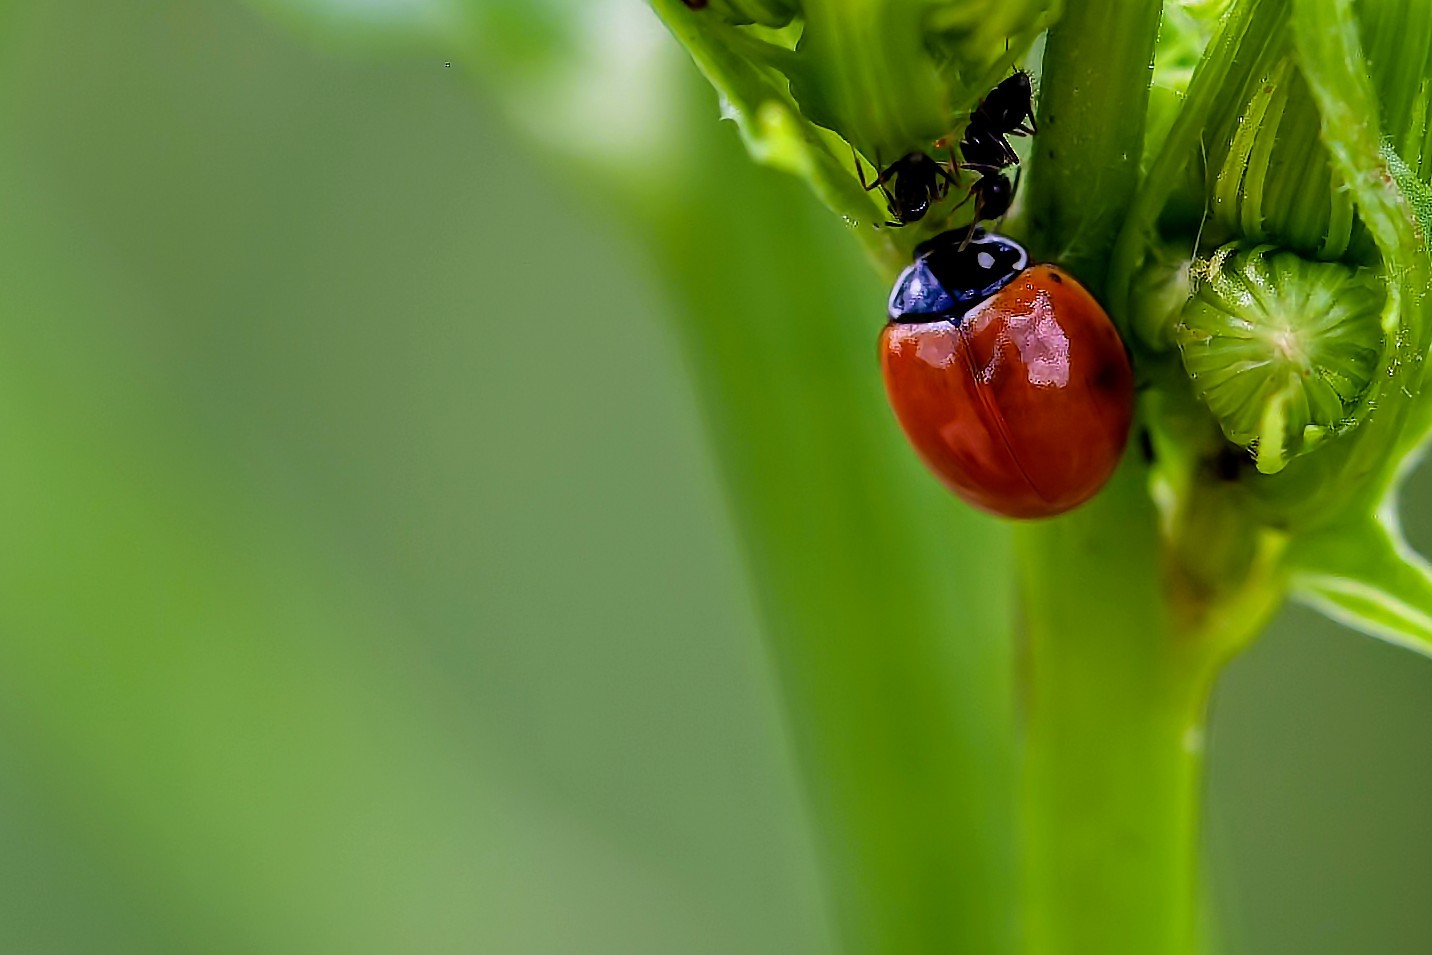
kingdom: Animalia
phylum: Arthropoda
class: Insecta
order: Coleoptera
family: Coccinellidae
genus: Cycloneda
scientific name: Cycloneda sanguinea
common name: Ladybird beetle
